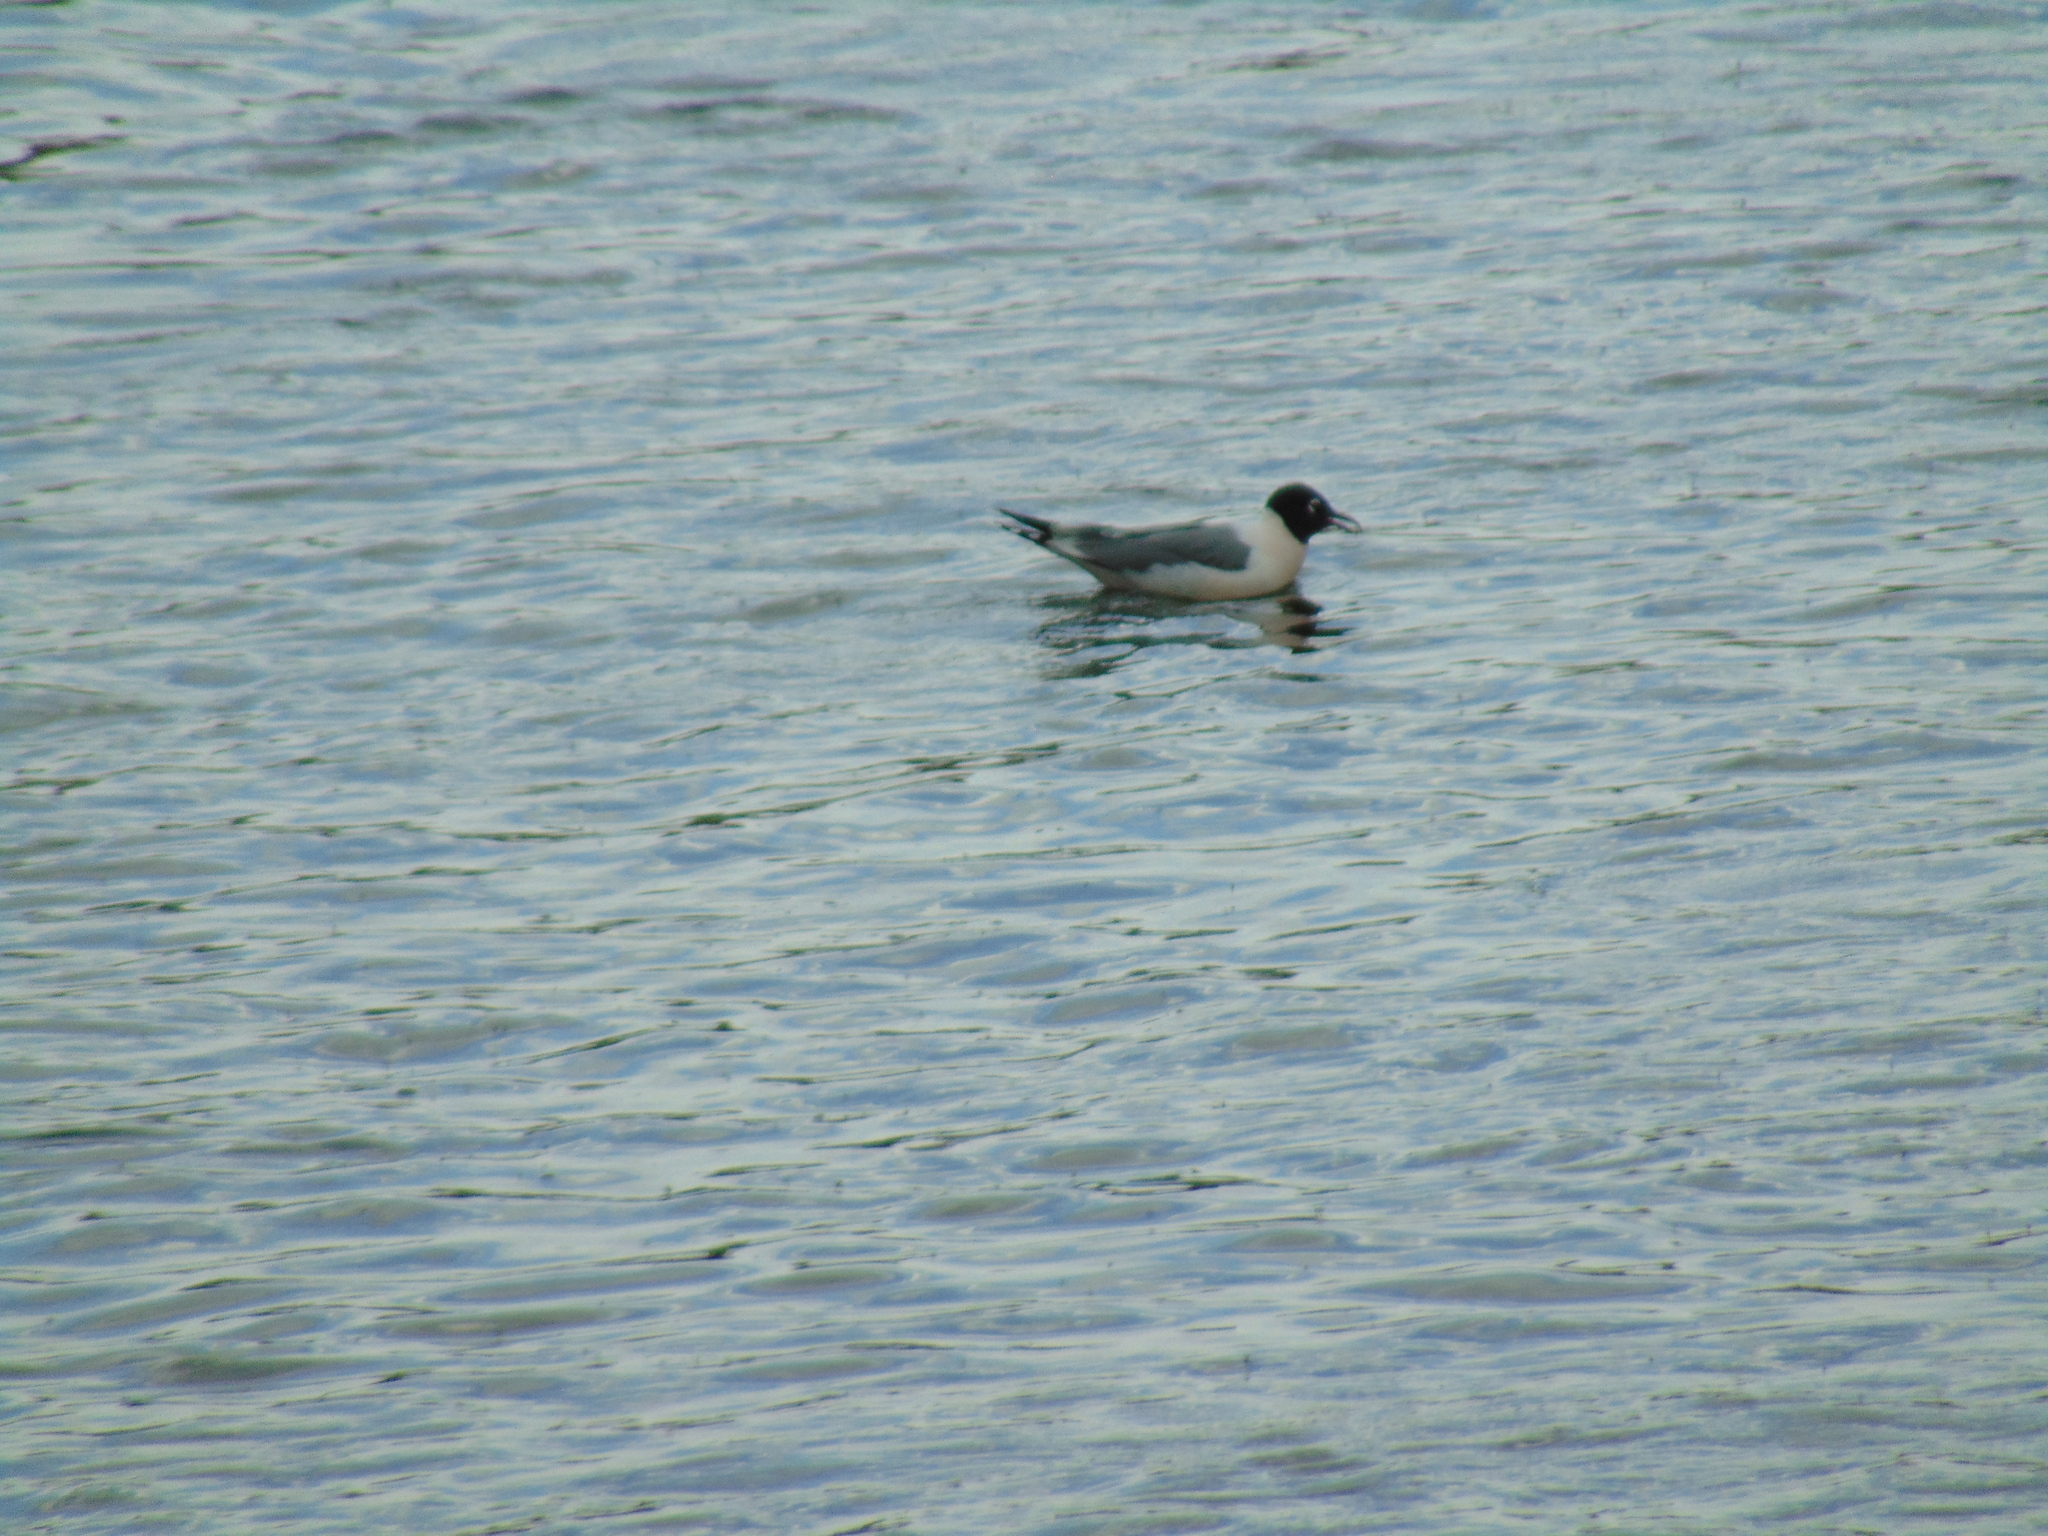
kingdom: Animalia
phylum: Chordata
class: Aves
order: Charadriiformes
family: Laridae
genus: Leucophaeus
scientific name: Leucophaeus pipixcan
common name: Franklin's gull
